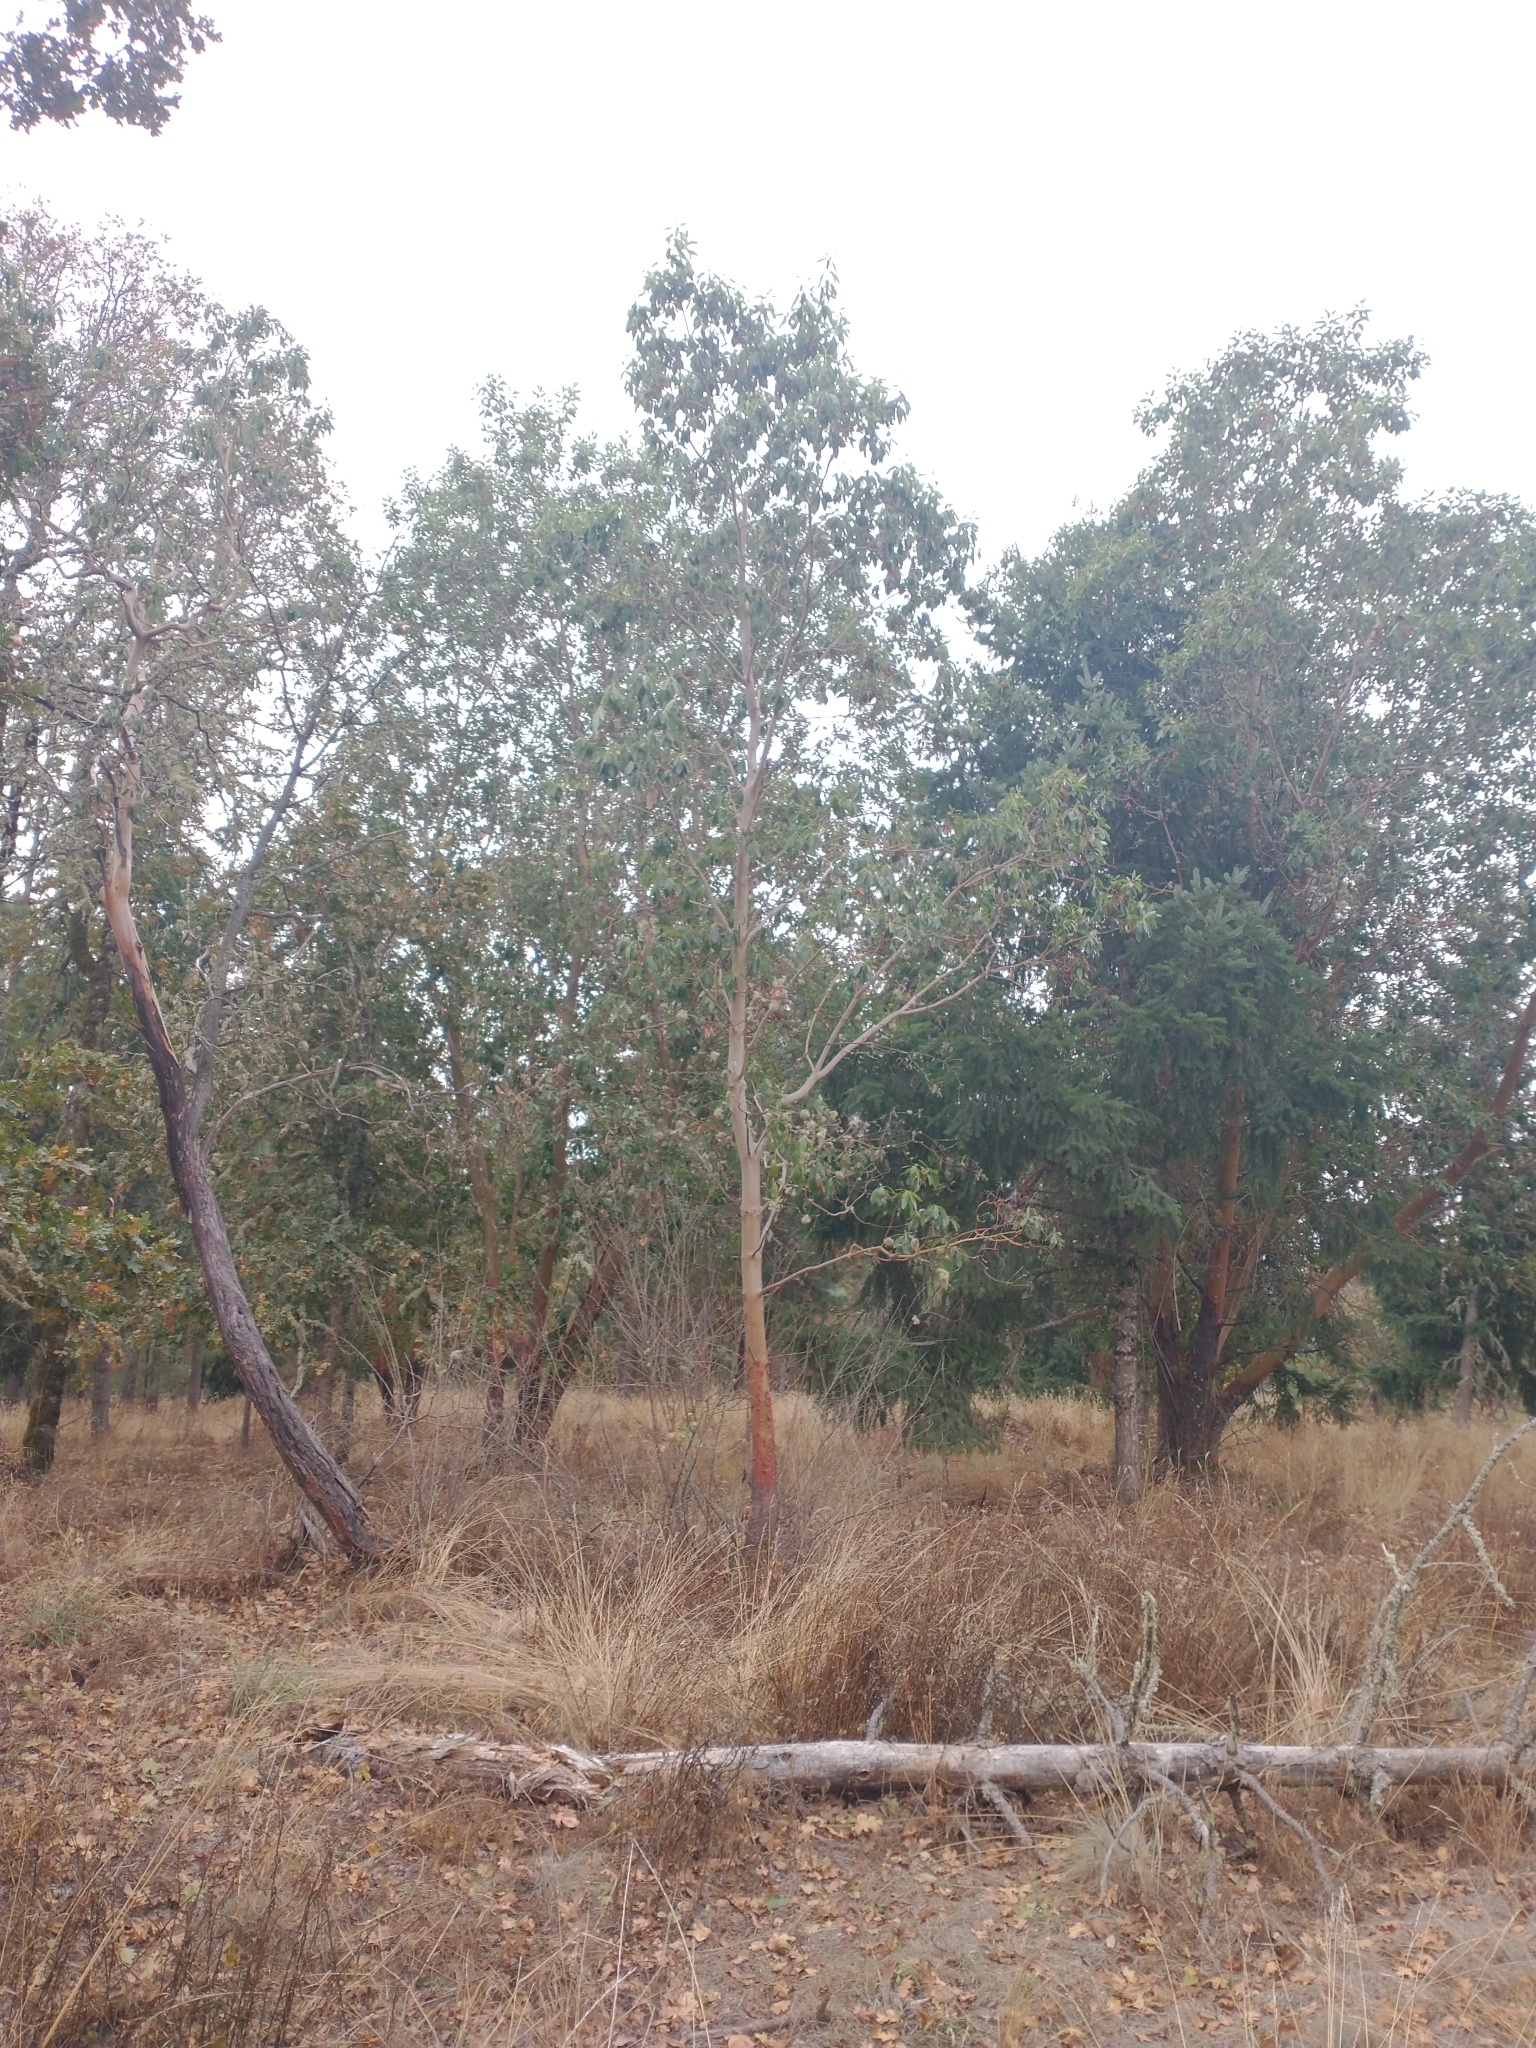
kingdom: Plantae
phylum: Tracheophyta
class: Magnoliopsida
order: Ericales
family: Ericaceae
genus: Arbutus
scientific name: Arbutus menziesii
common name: Pacific madrone
